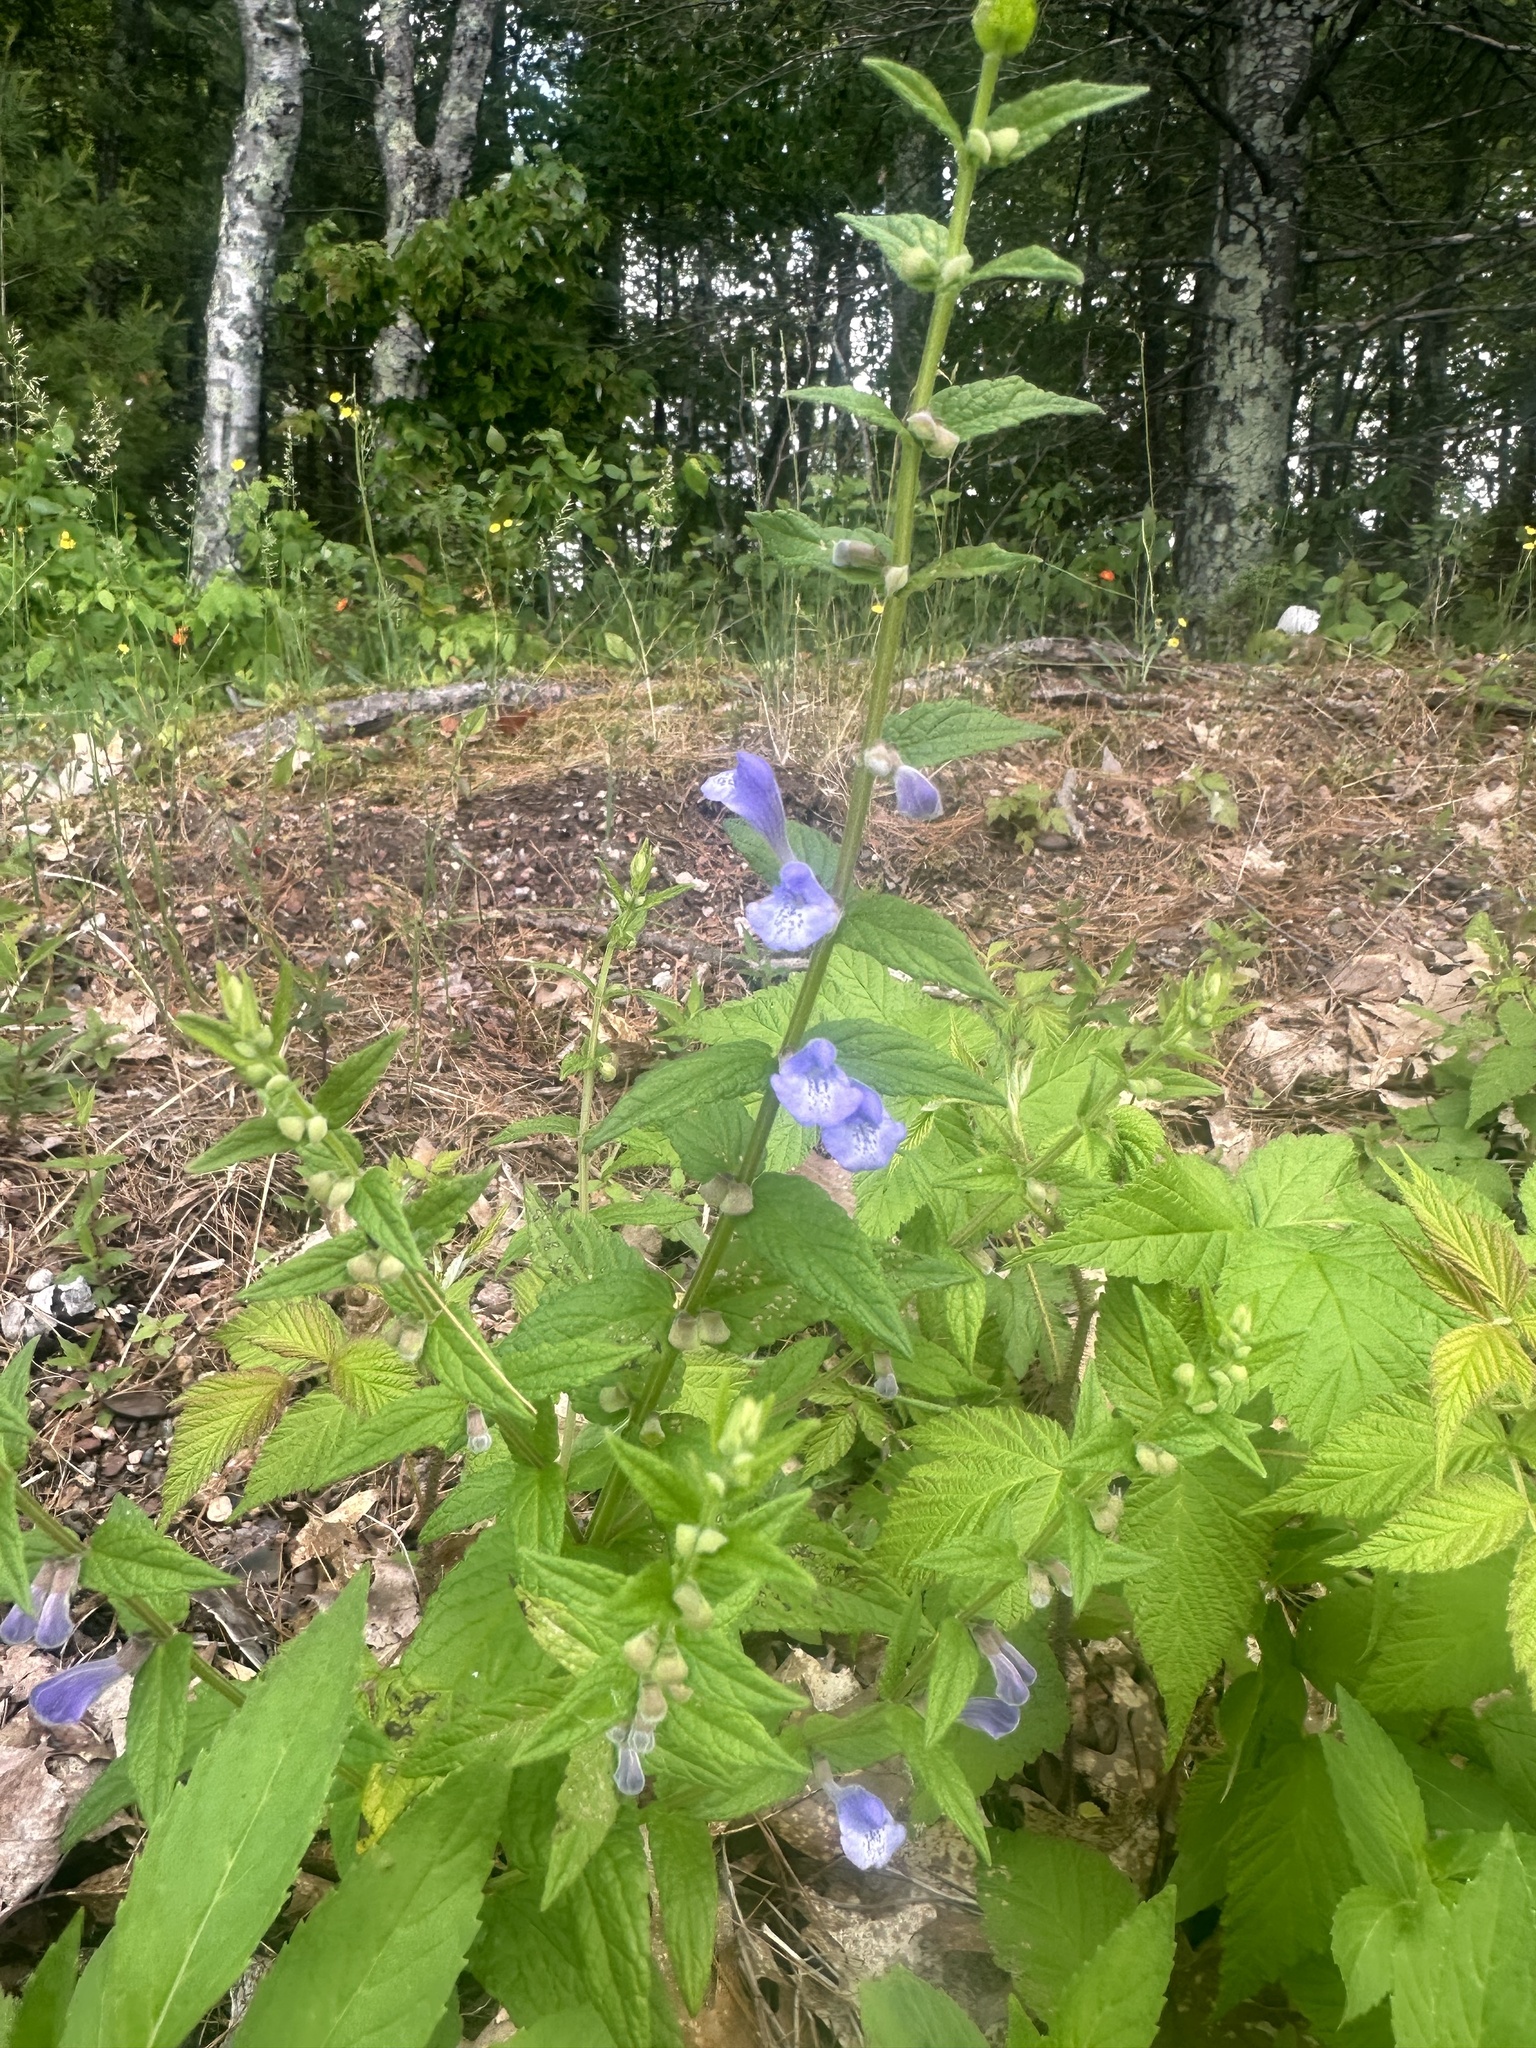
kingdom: Plantae
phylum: Tracheophyta
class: Magnoliopsida
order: Lamiales
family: Lamiaceae
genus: Scutellaria
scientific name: Scutellaria galericulata
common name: Skullcap
